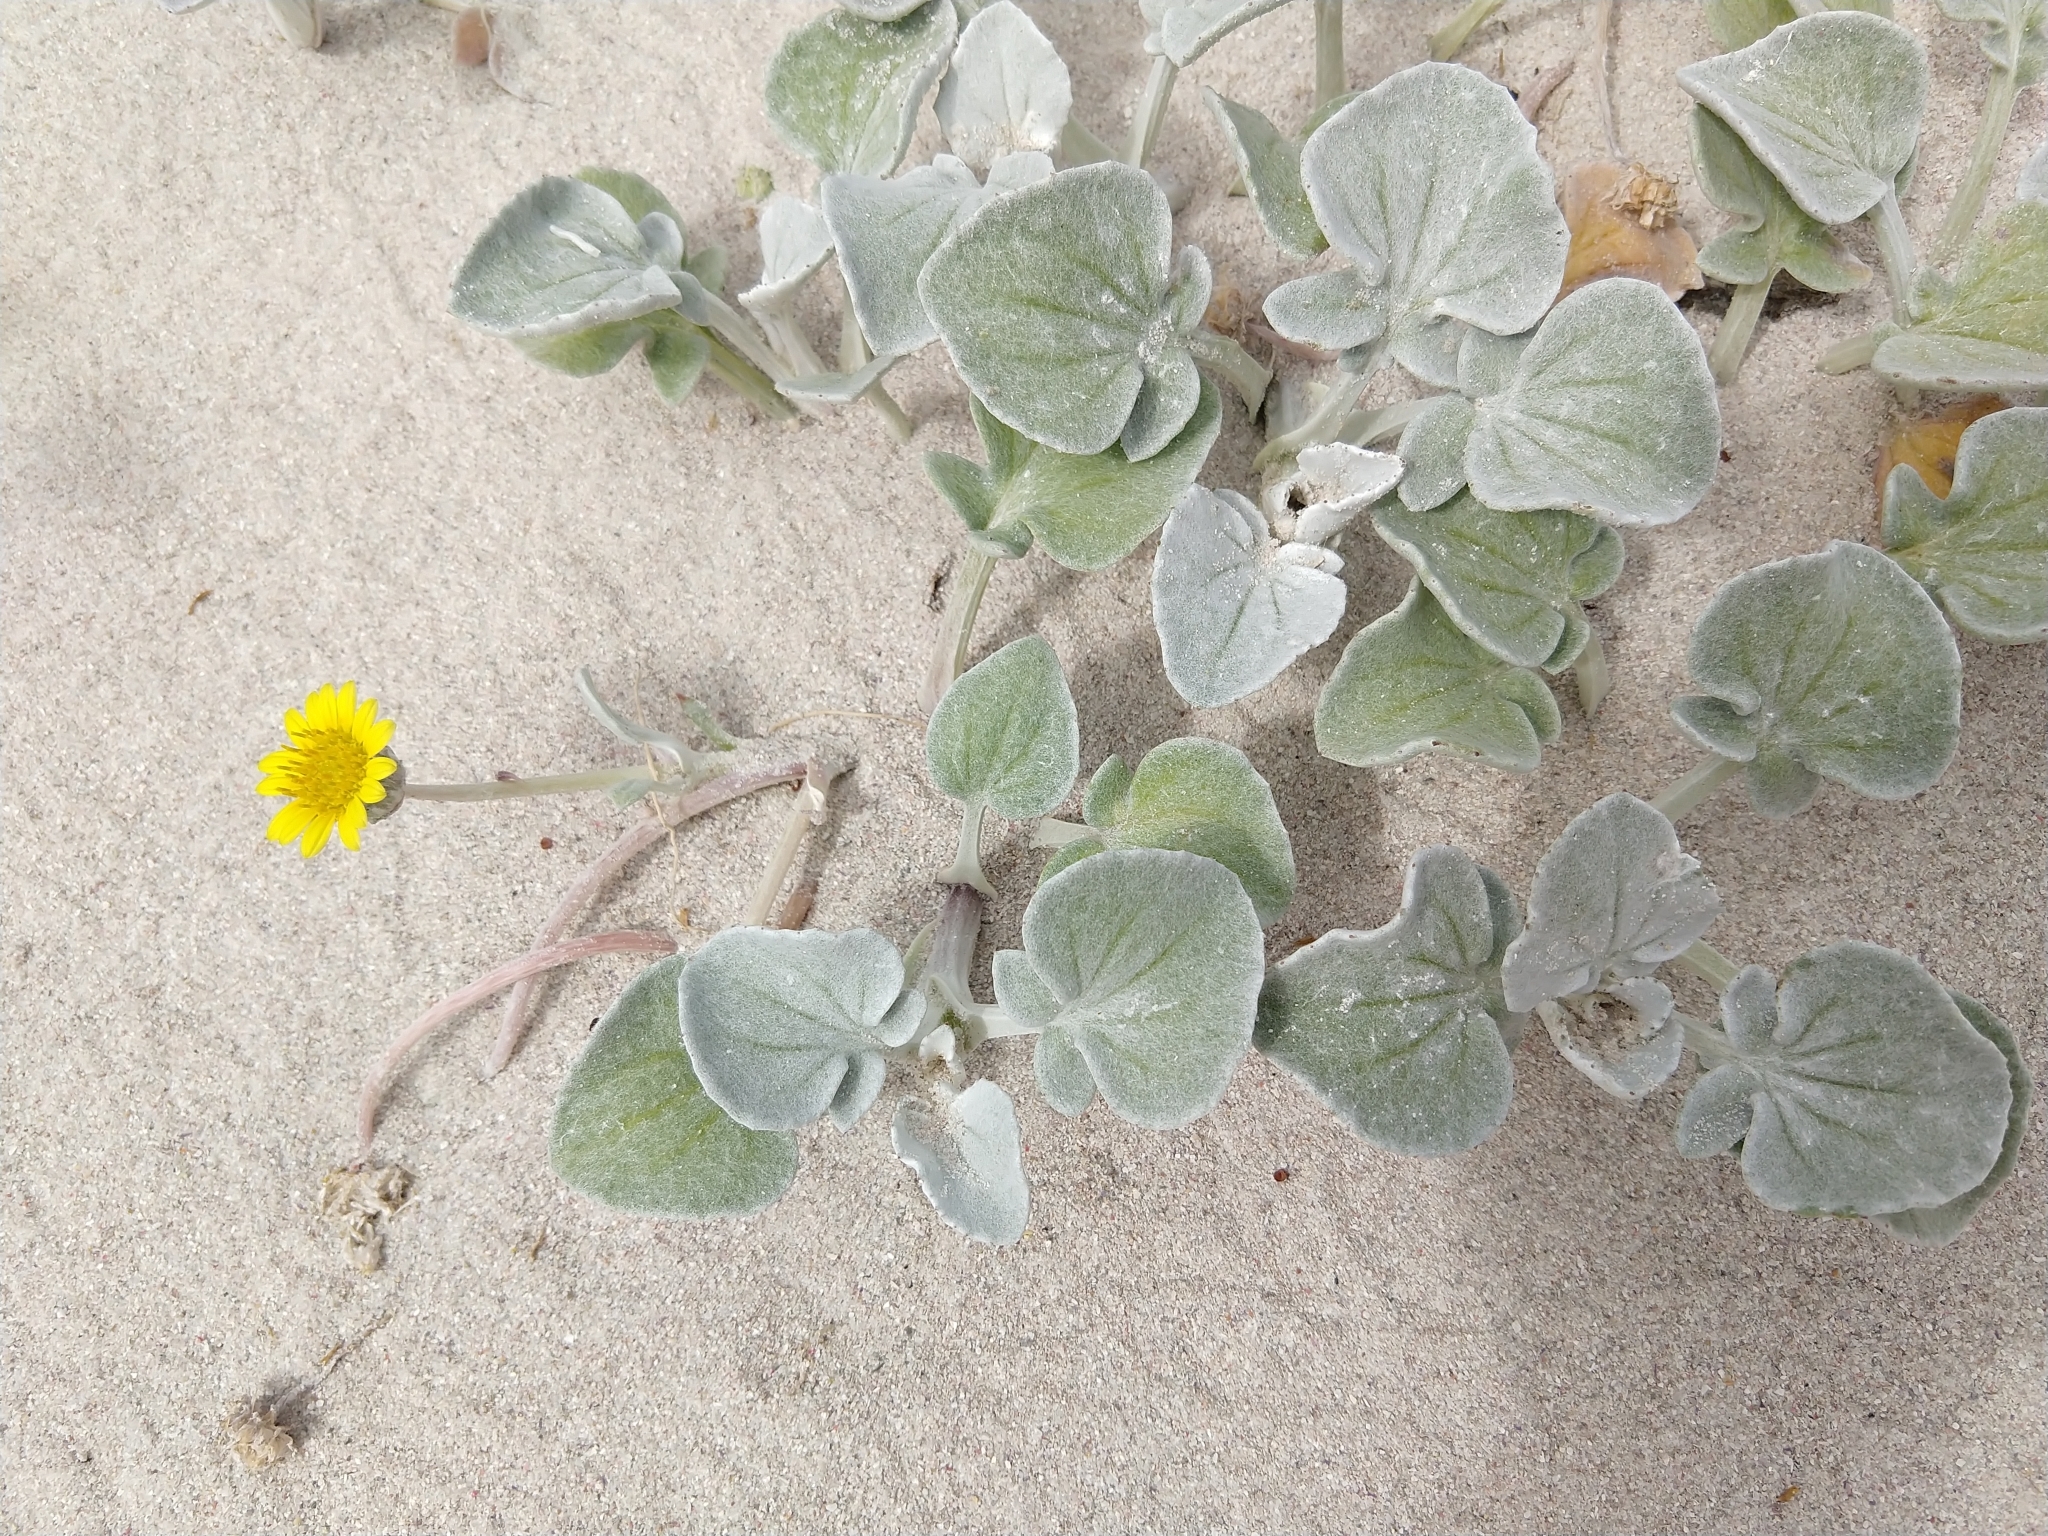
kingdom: Plantae
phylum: Tracheophyta
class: Magnoliopsida
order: Asterales
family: Asteraceae
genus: Arctotheca
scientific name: Arctotheca populifolia
